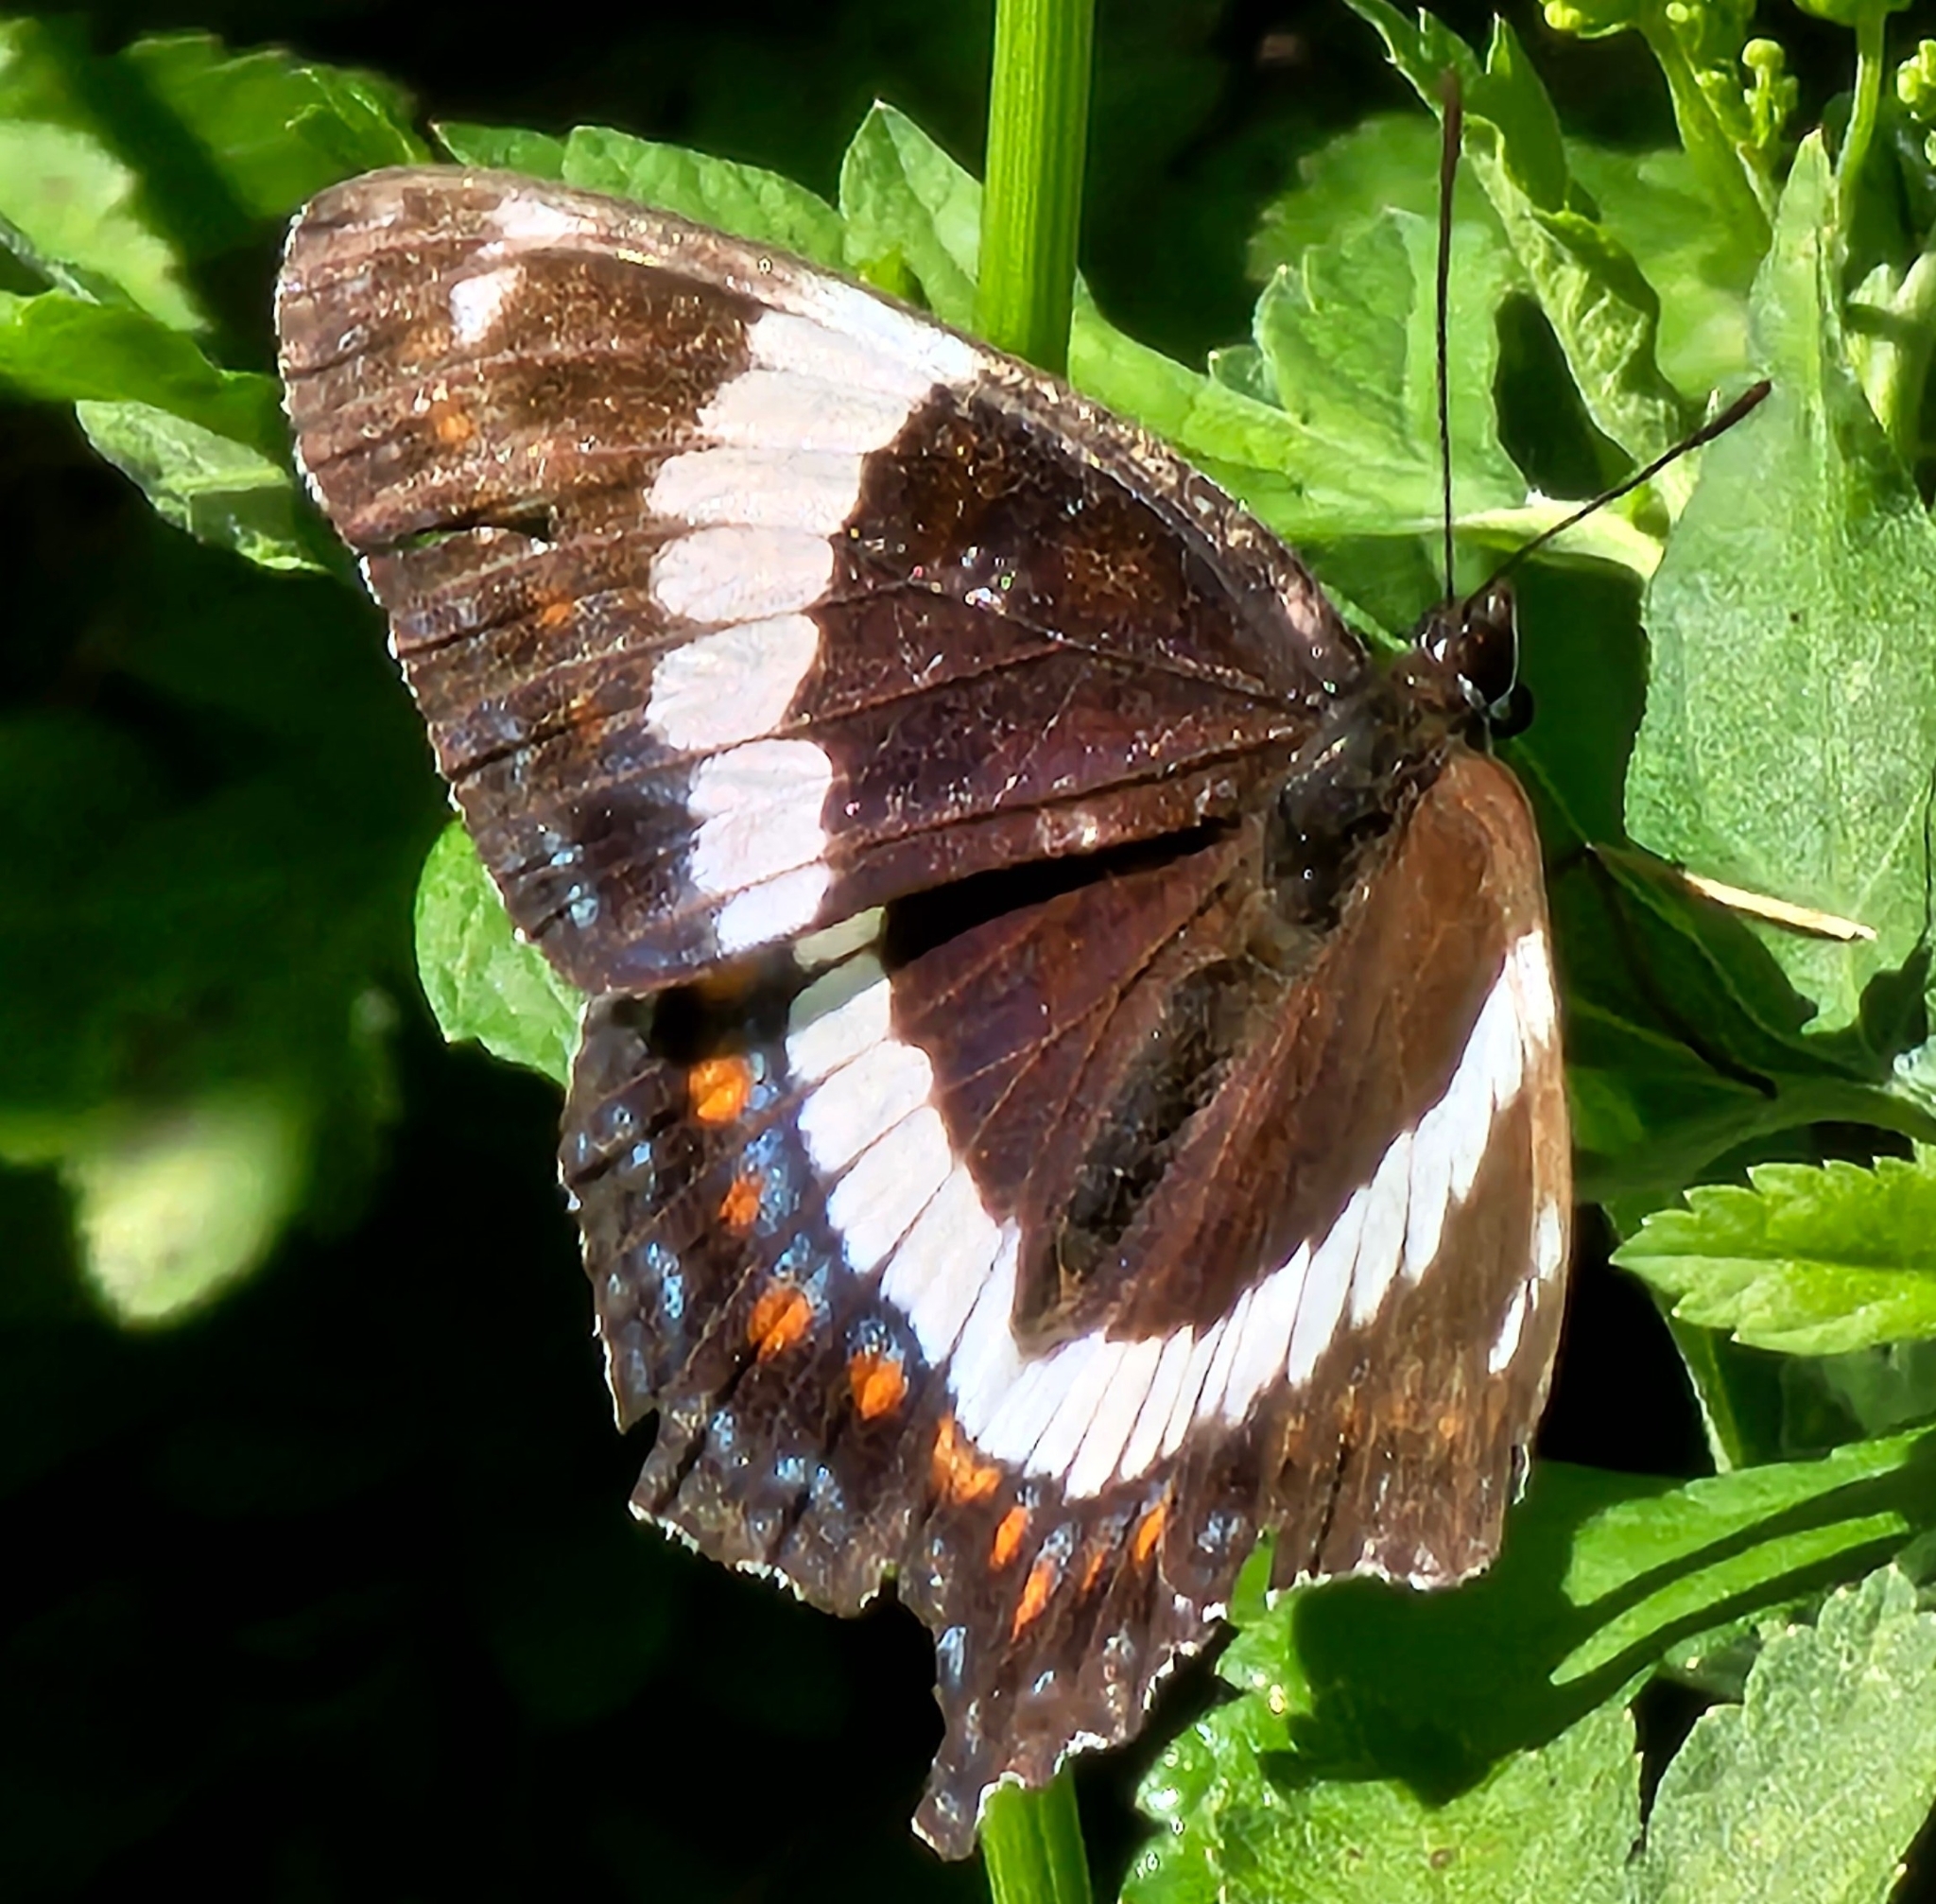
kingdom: Animalia
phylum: Arthropoda
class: Insecta
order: Lepidoptera
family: Nymphalidae
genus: Limenitis
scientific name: Limenitis arthemis
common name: Red-spotted admiral
